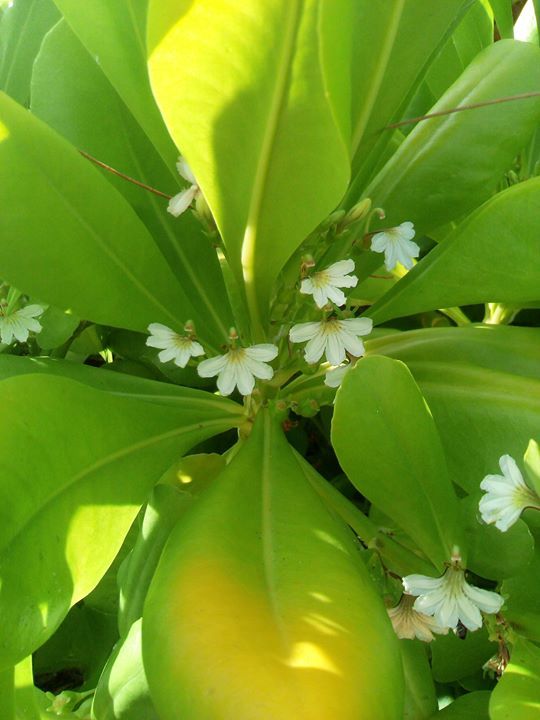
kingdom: Plantae
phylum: Tracheophyta
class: Magnoliopsida
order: Asterales
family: Goodeniaceae
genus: Scaevola
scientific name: Scaevola taccada
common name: Sea lettucetree
